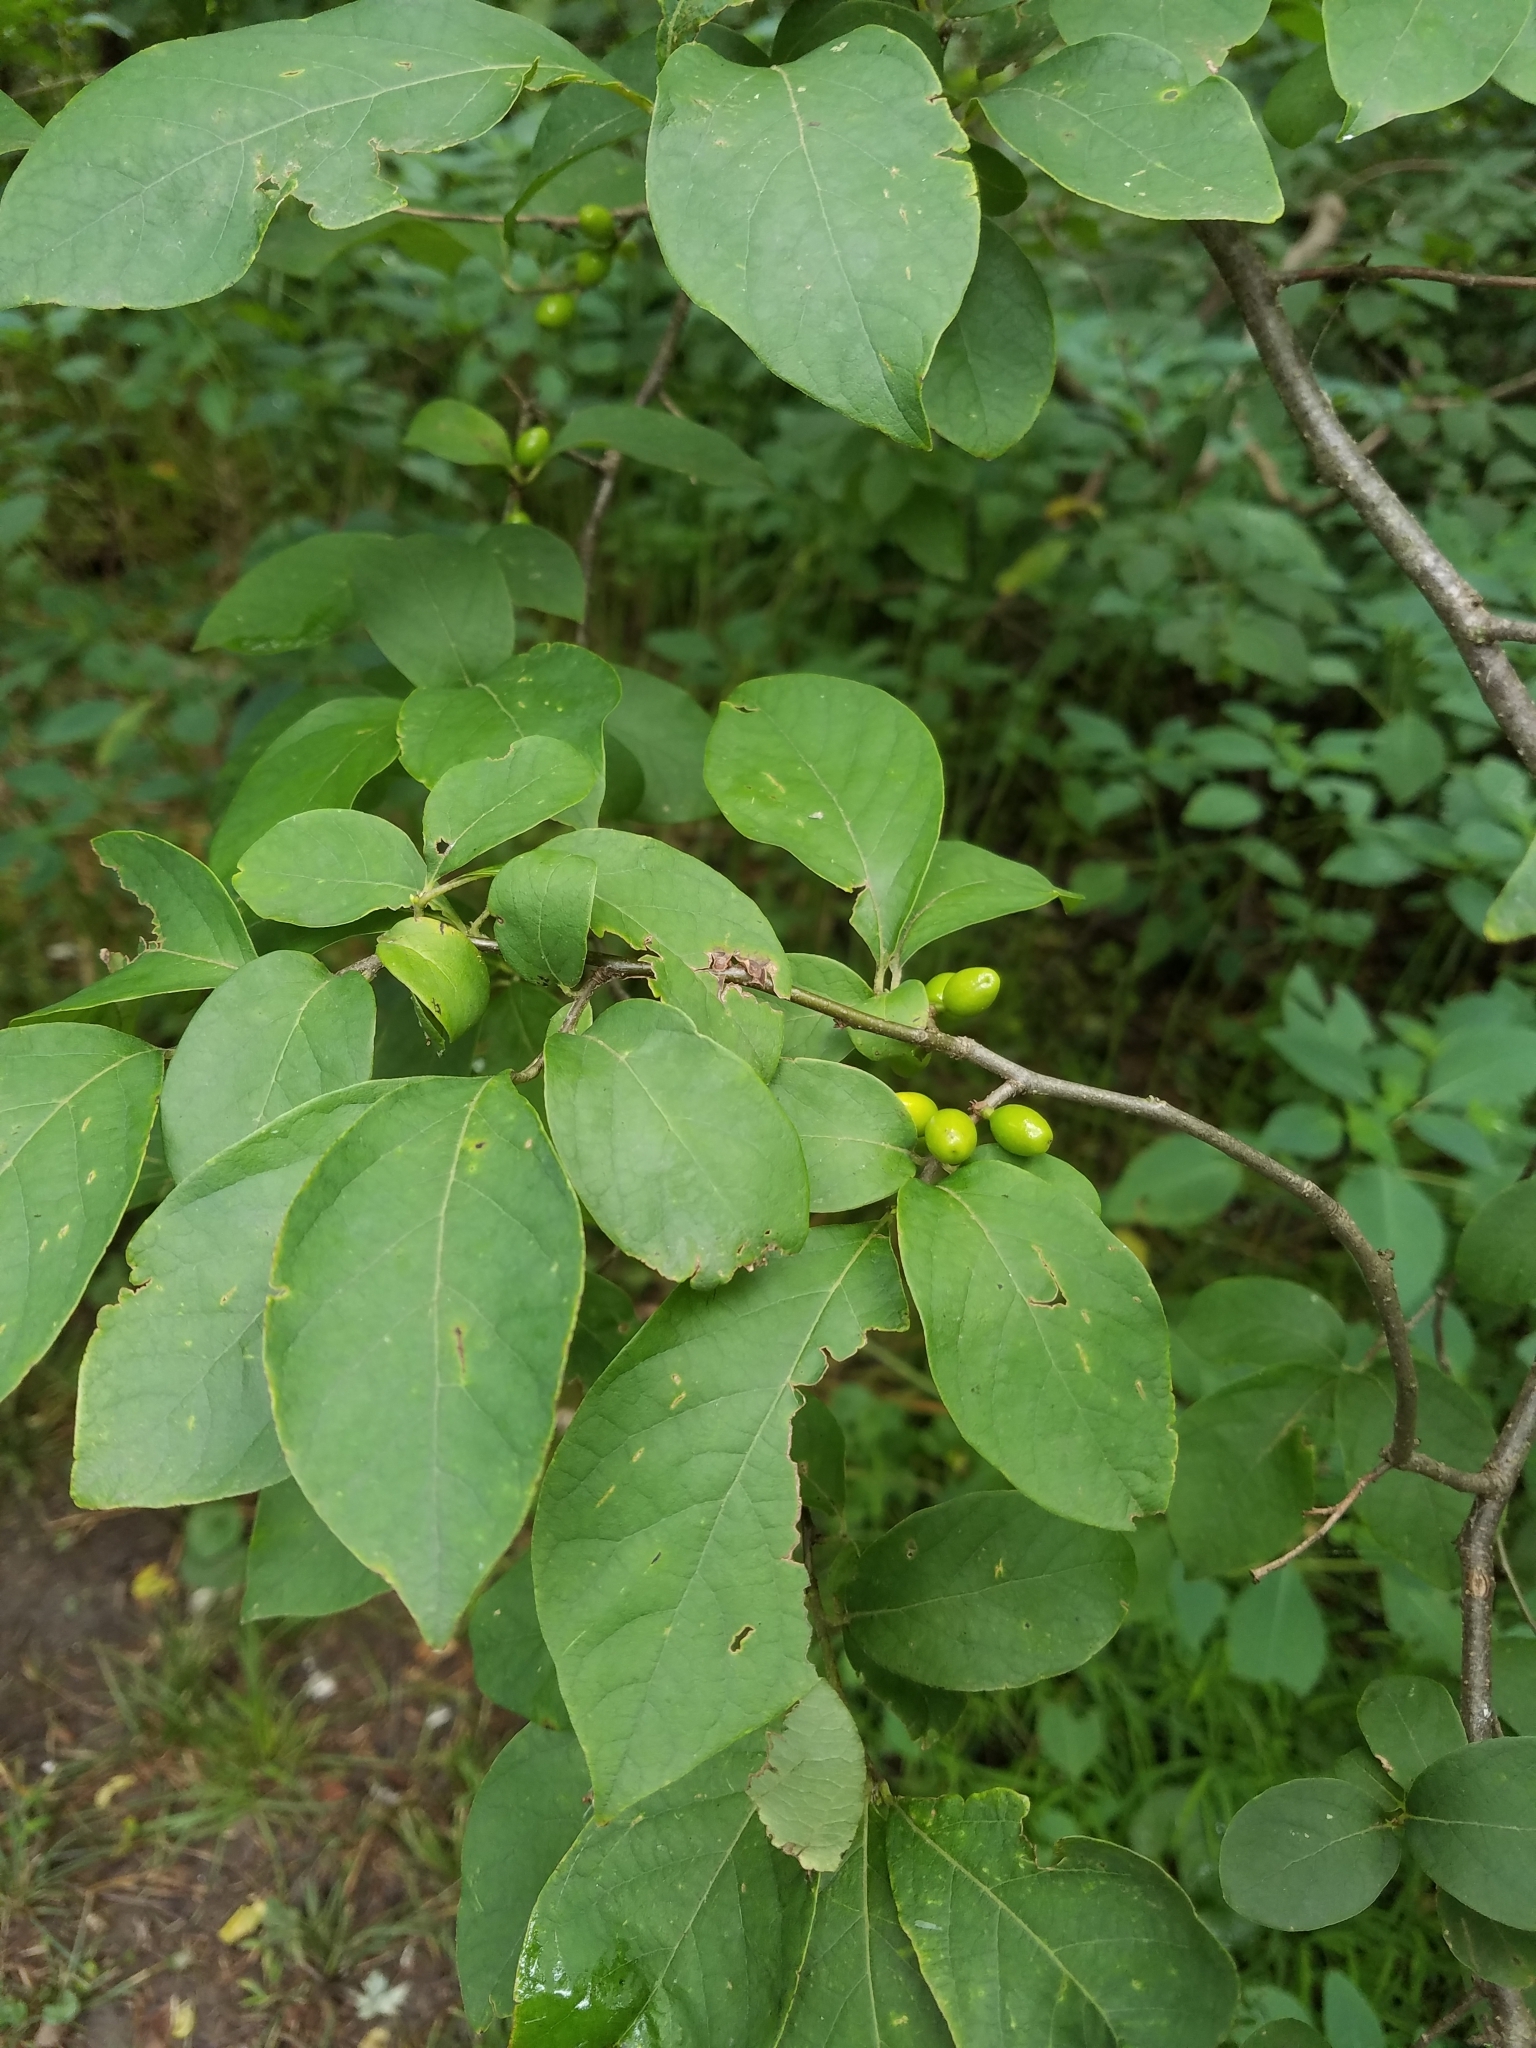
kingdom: Plantae
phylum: Tracheophyta
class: Magnoliopsida
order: Laurales
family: Lauraceae
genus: Lindera
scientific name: Lindera benzoin
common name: Spicebush
